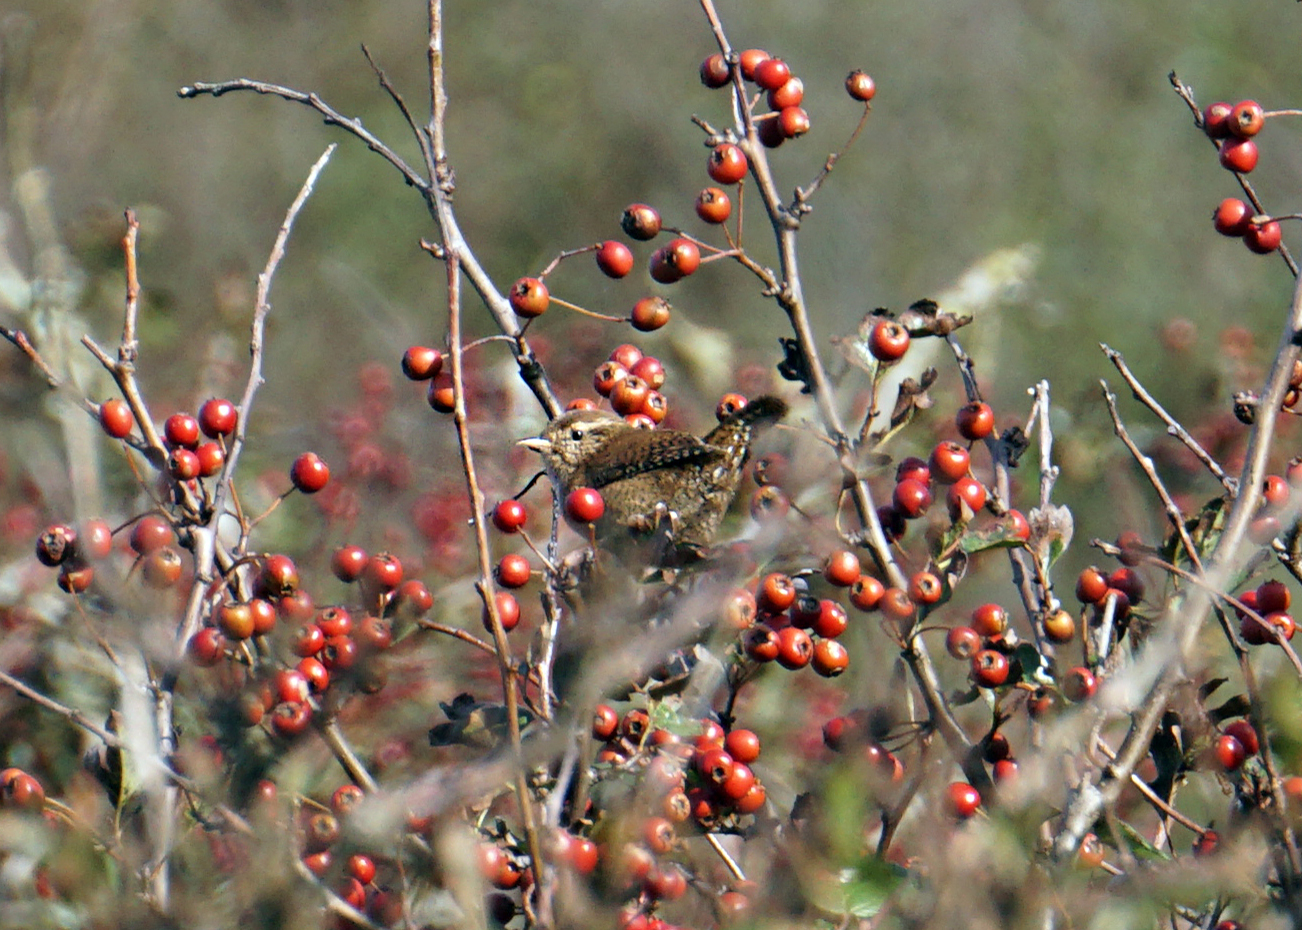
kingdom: Animalia
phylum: Chordata
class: Aves
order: Passeriformes
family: Troglodytidae
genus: Troglodytes
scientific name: Troglodytes troglodytes
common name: Eurasian wren
